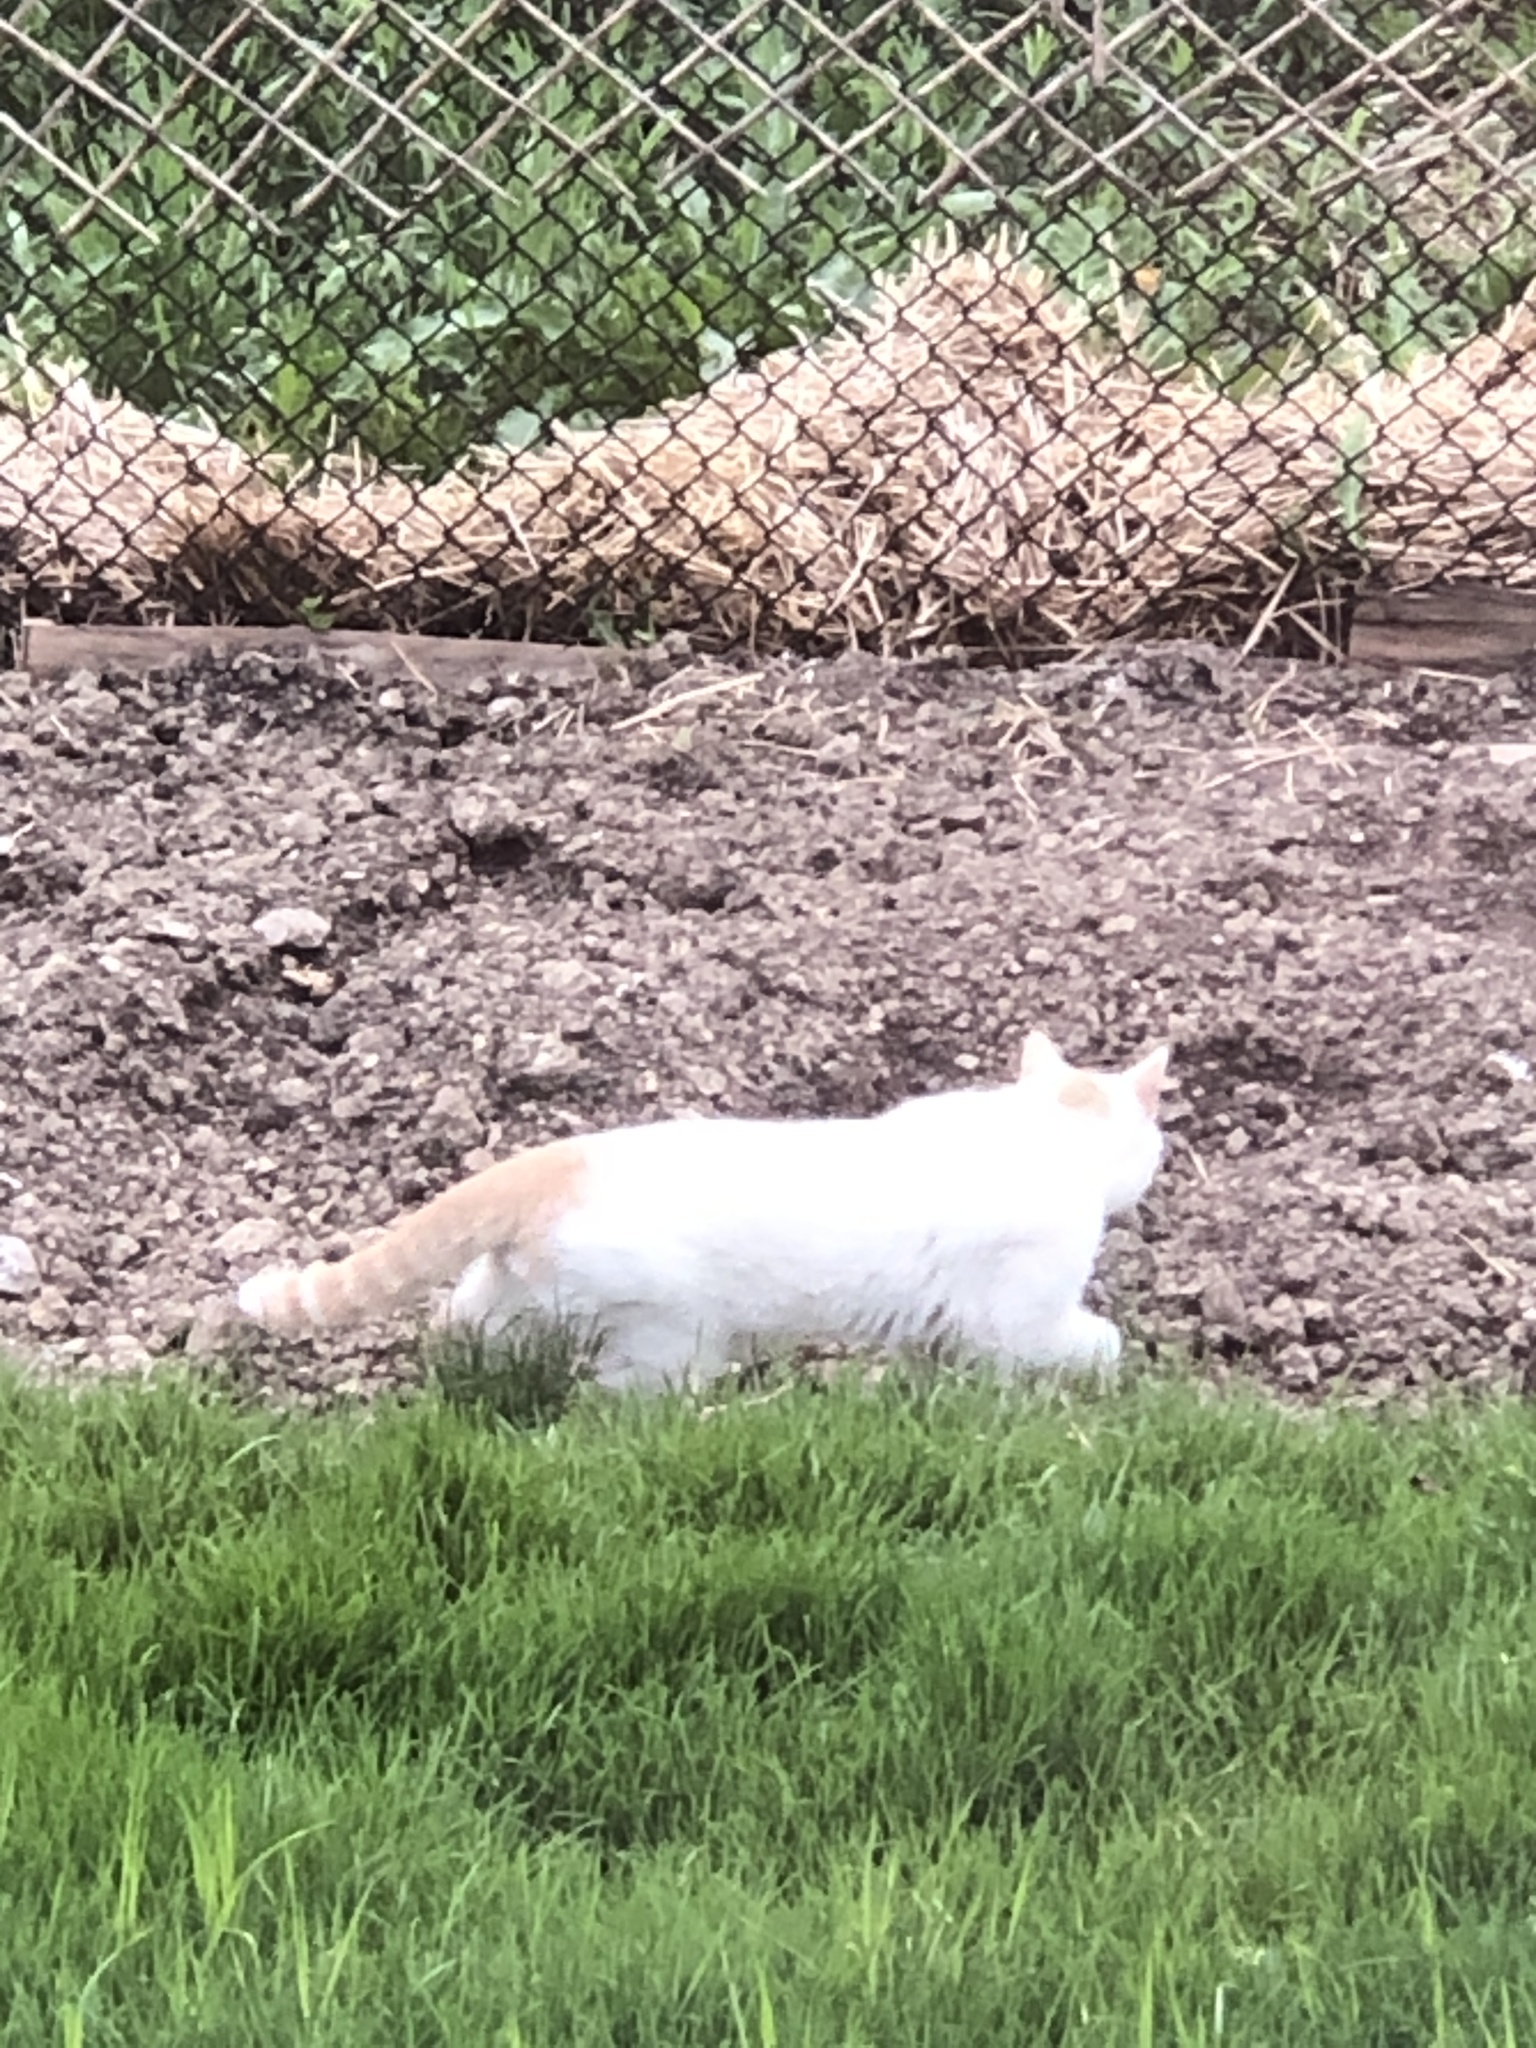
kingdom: Animalia
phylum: Chordata
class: Mammalia
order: Carnivora
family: Felidae
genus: Felis
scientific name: Felis catus
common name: Domestic cat
